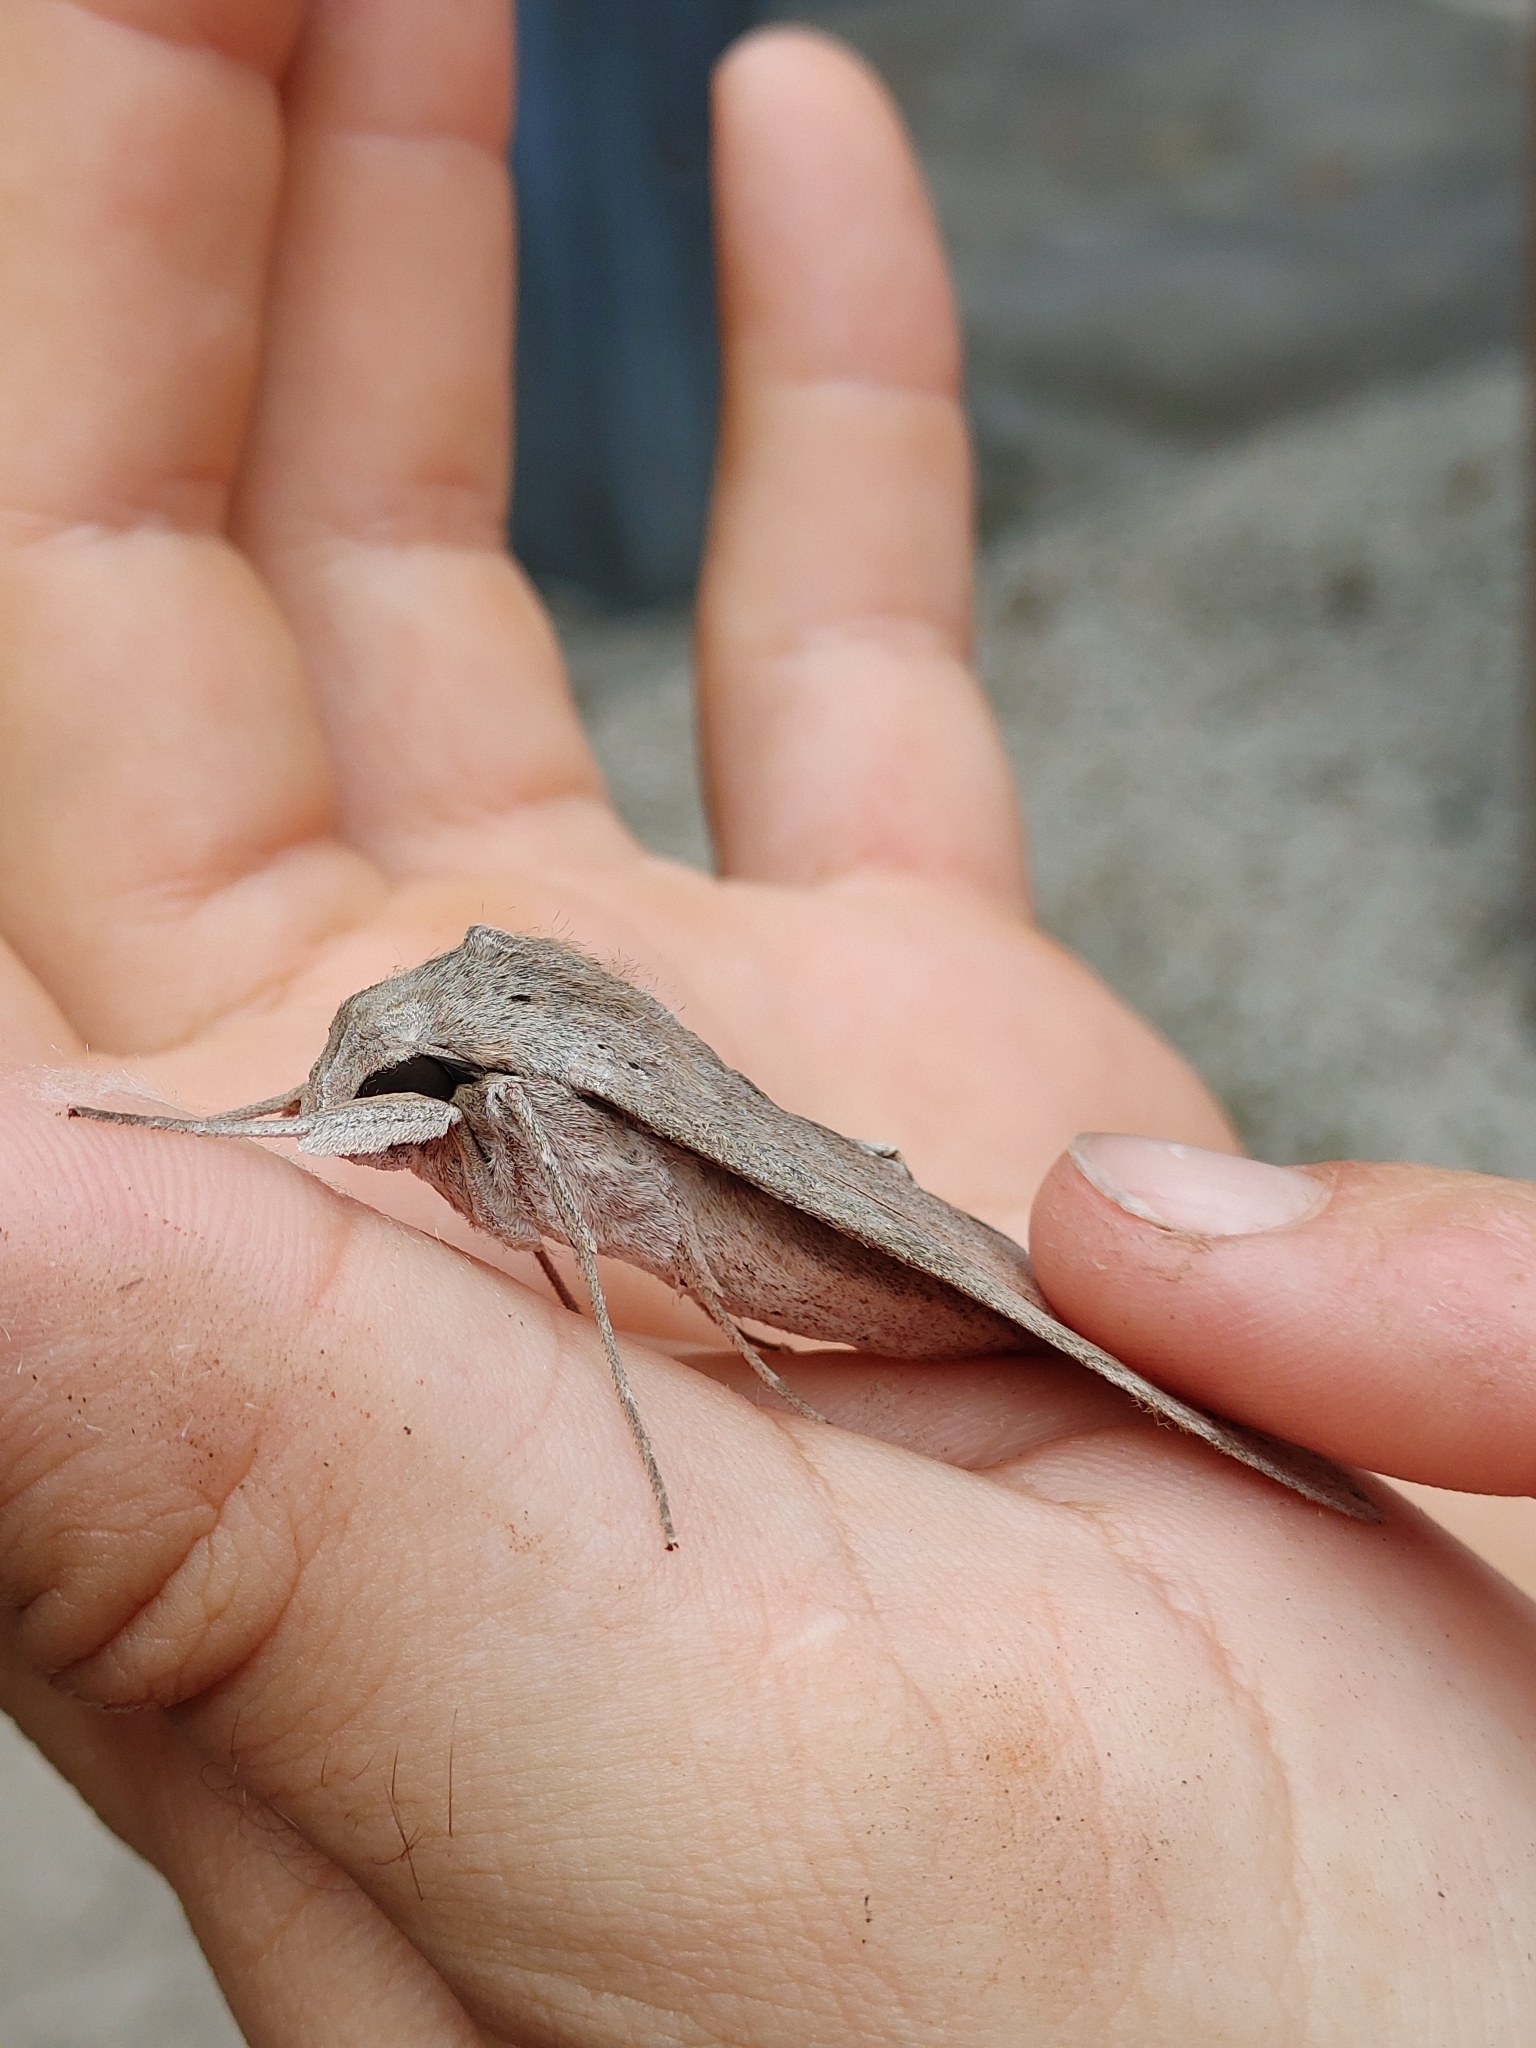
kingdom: Animalia
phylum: Arthropoda
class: Insecta
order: Lepidoptera
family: Sphingidae
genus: Erinnyis
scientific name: Erinnyis ello
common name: Ello sphinx
